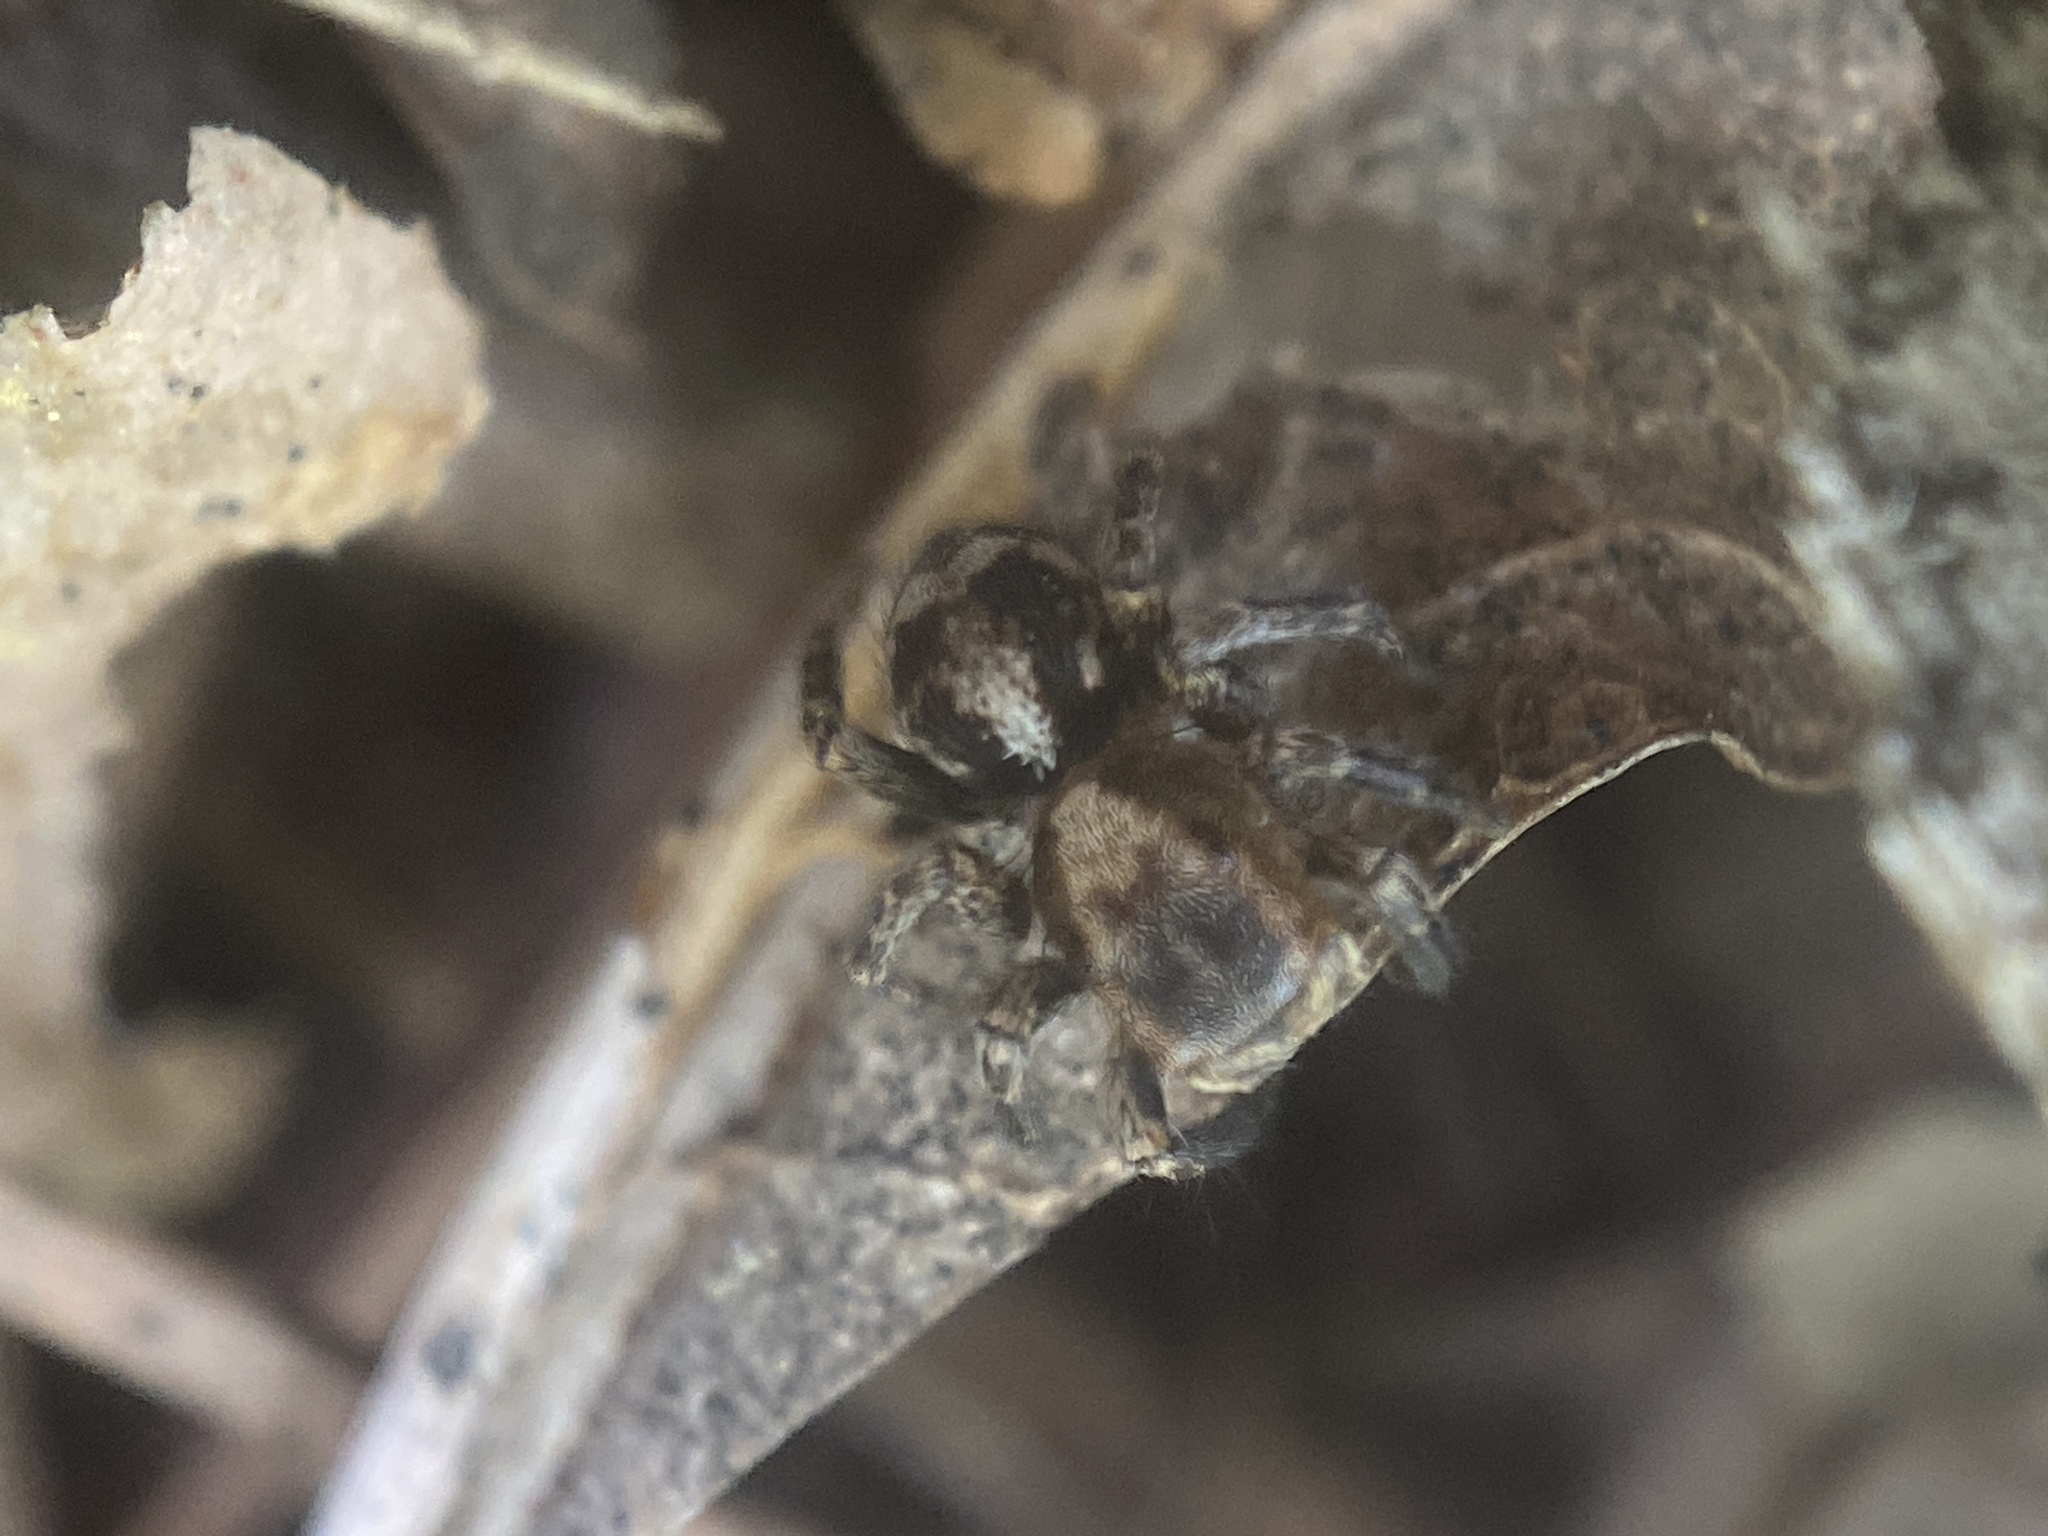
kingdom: Animalia
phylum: Arthropoda
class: Arachnida
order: Araneae
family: Salticidae
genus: Naphrys
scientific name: Naphrys pulex
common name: Flea jumping spider
